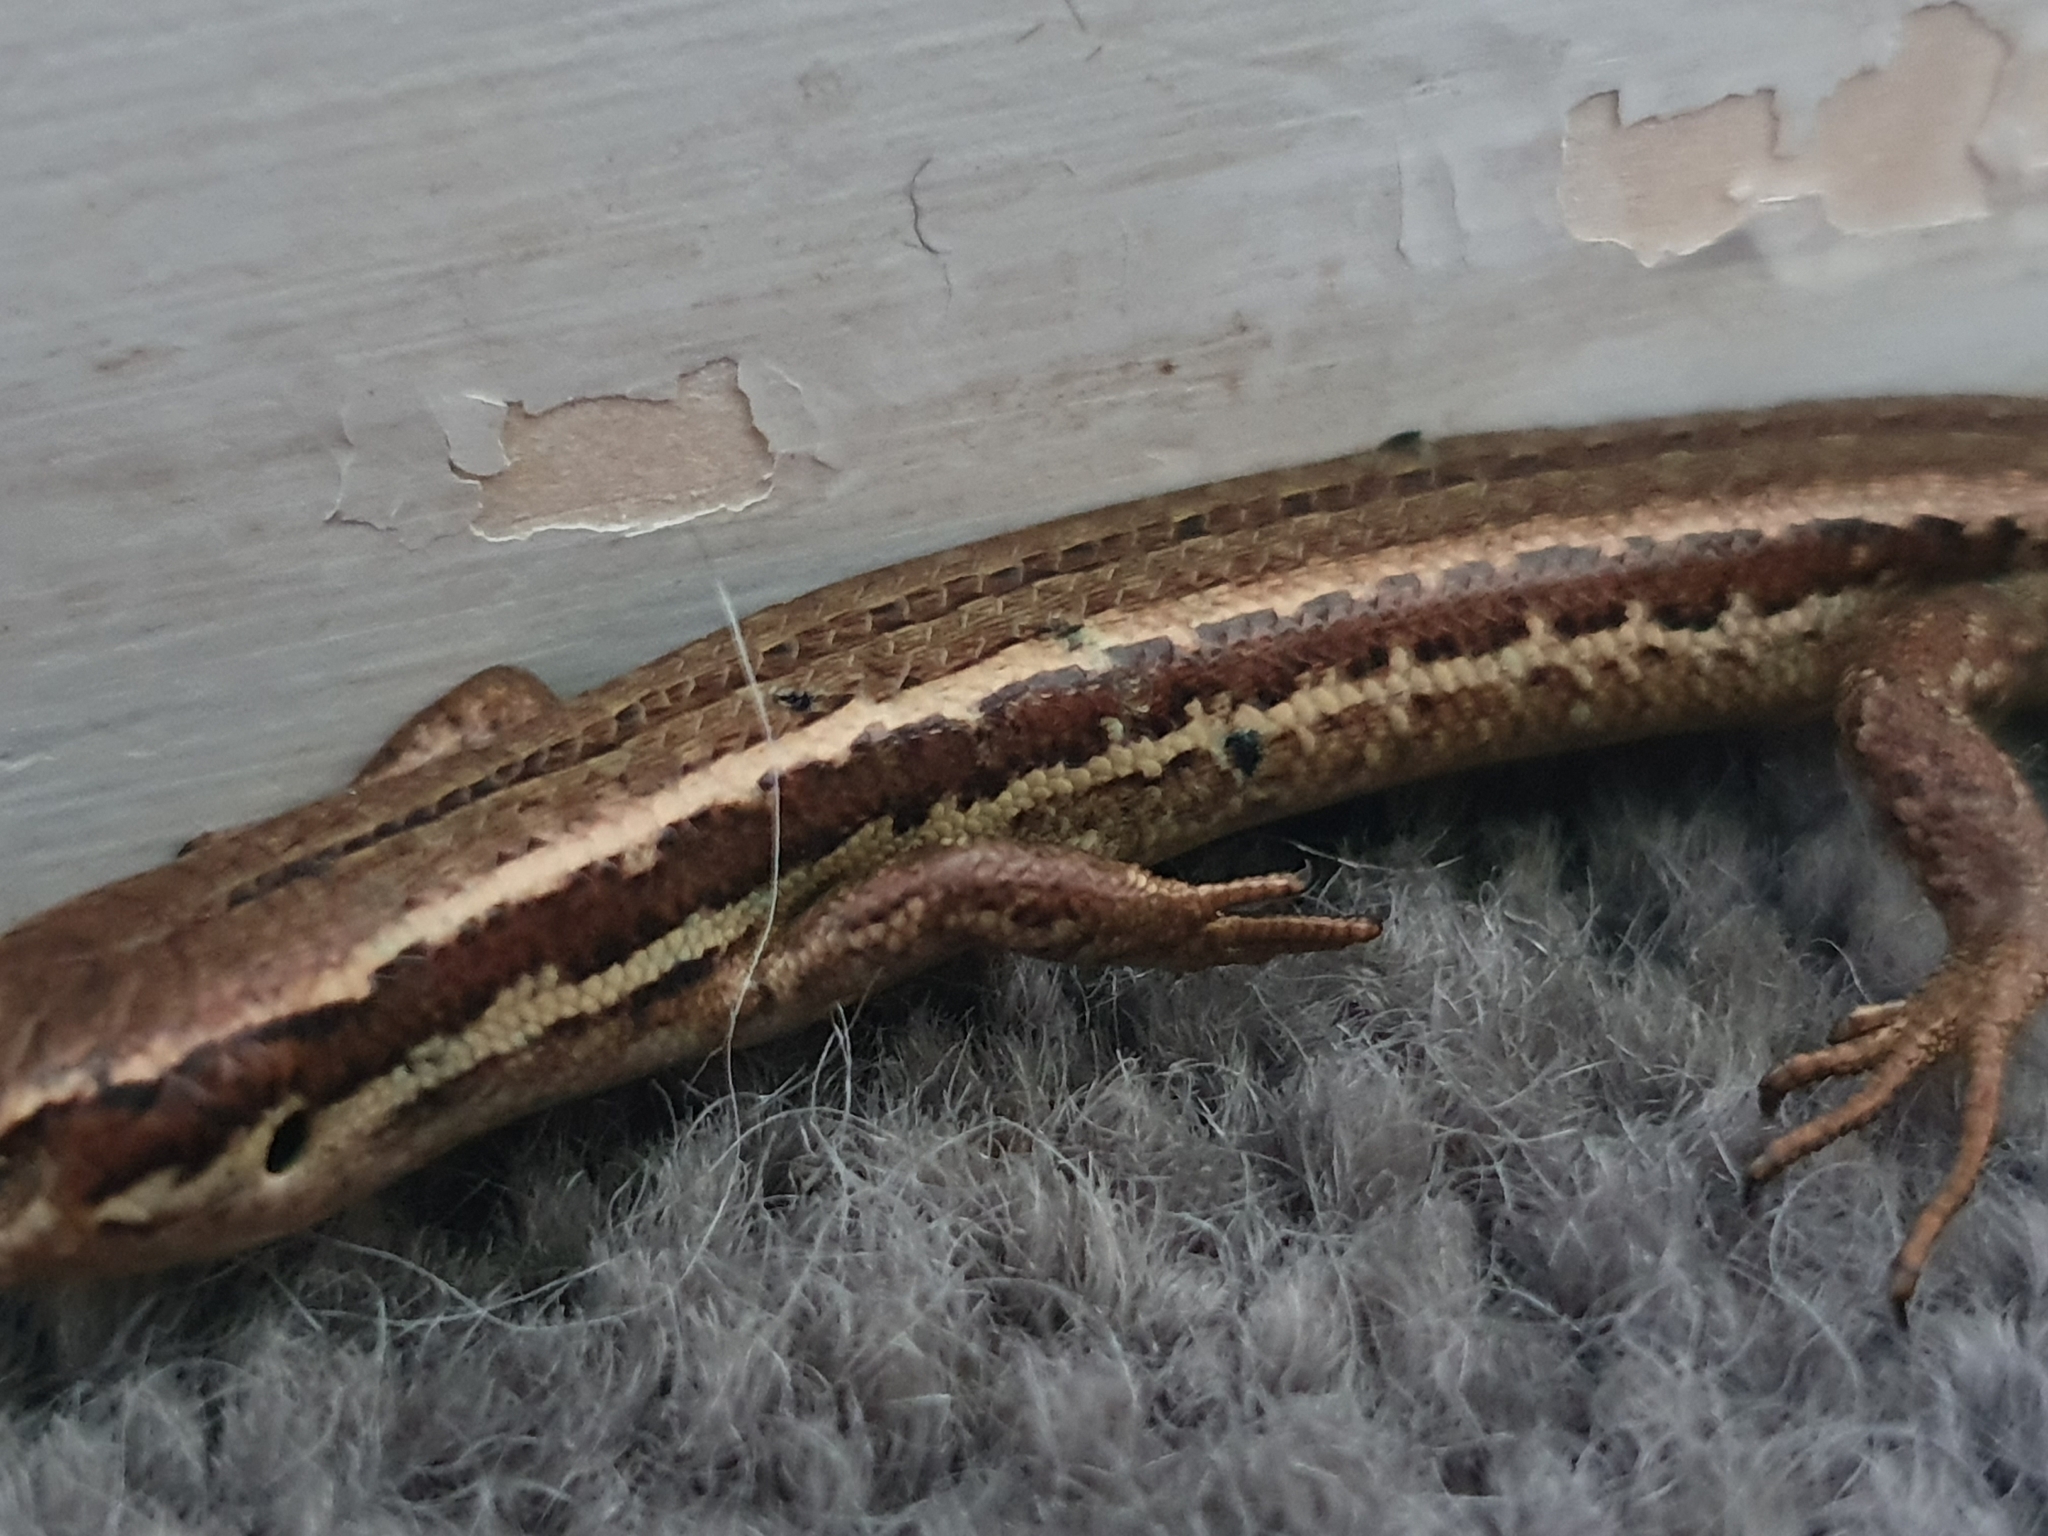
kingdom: Animalia
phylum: Chordata
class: Squamata
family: Scincidae
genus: Oligosoma
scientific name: Oligosoma polychroma
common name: Common new zealand skink
